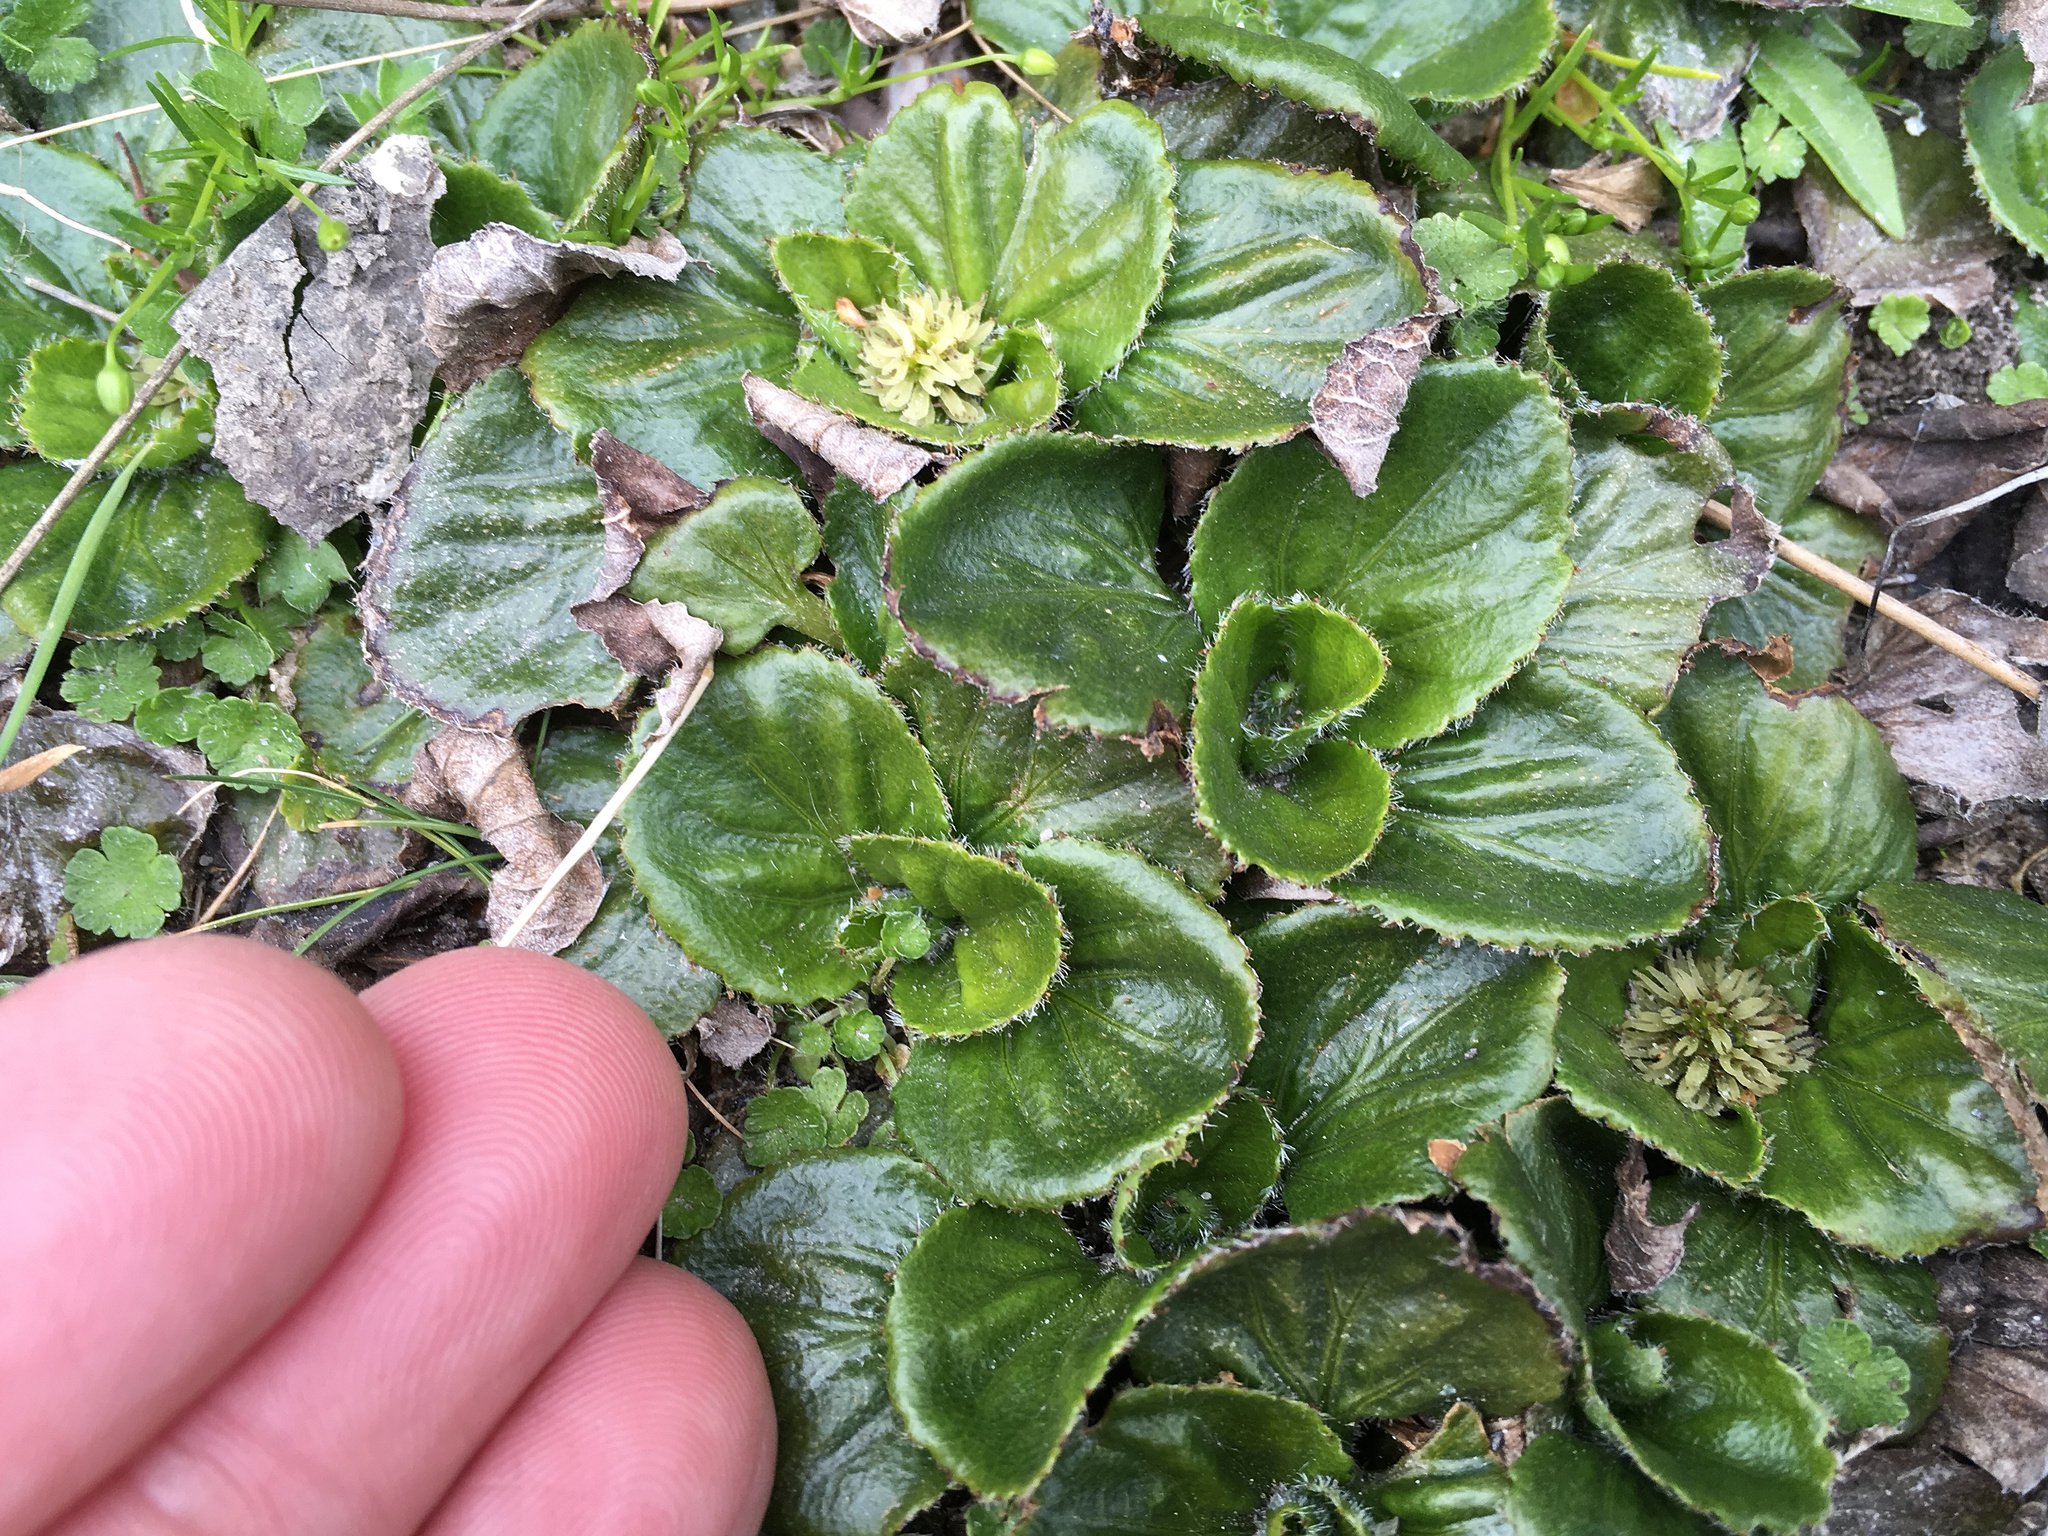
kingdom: Plantae
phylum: Tracheophyta
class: Magnoliopsida
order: Gunnerales
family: Gunneraceae
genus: Gunnera
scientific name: Gunnera cordifolia
